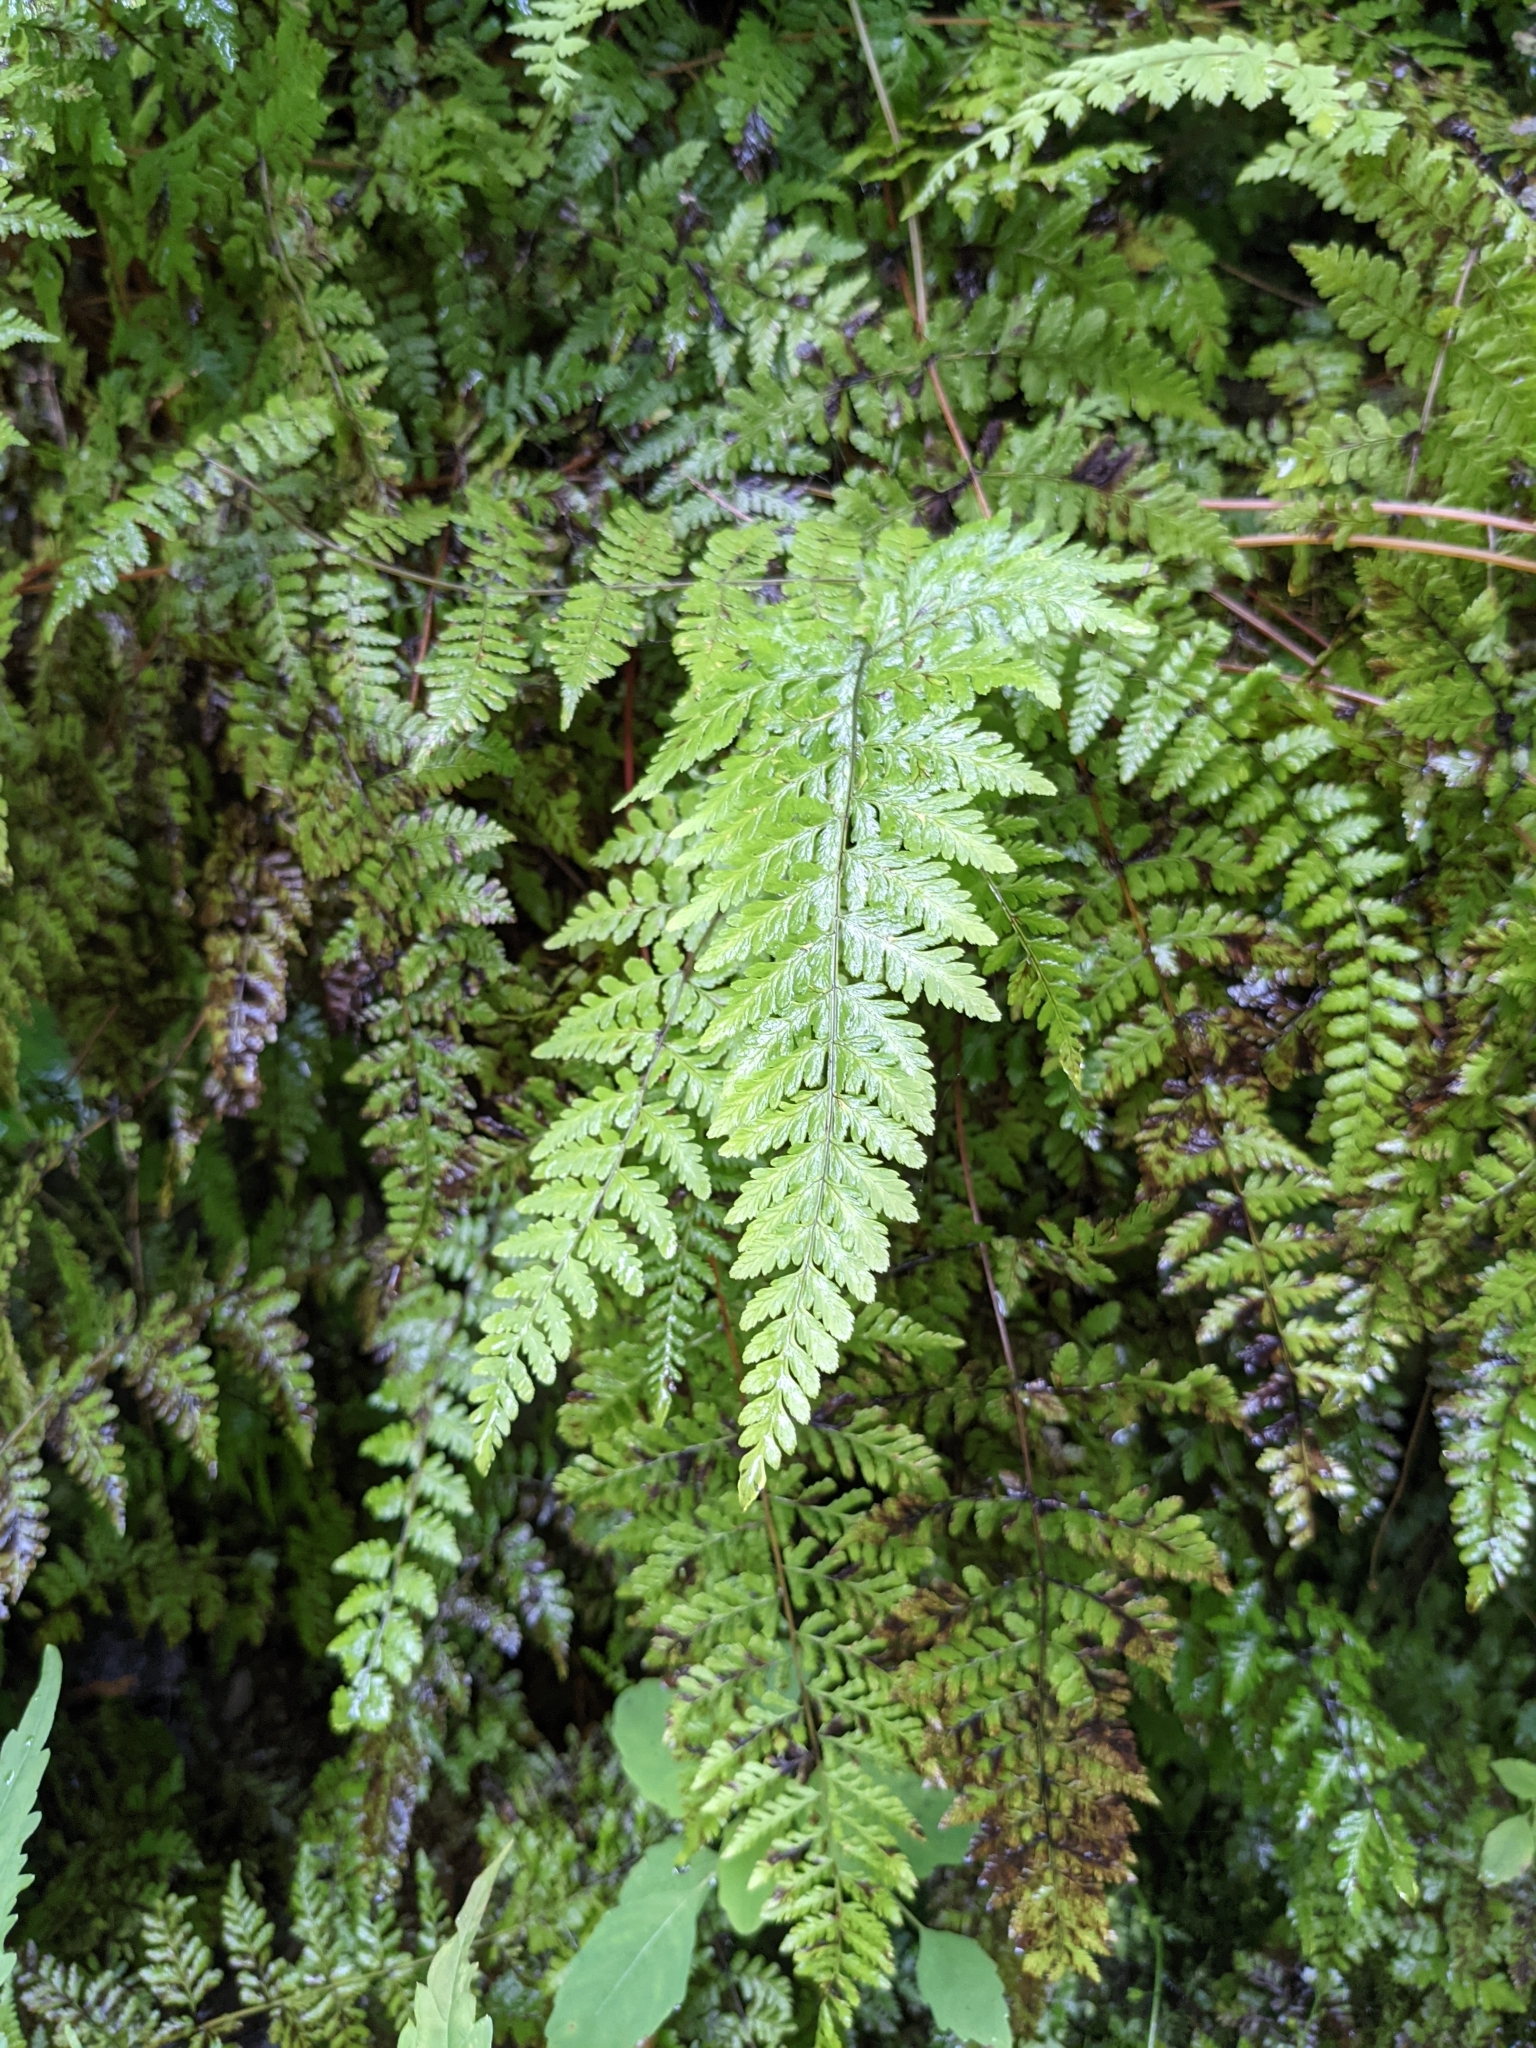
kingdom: Plantae
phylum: Tracheophyta
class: Polypodiopsida
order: Polypodiales
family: Cystopteridaceae
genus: Cystopteris
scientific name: Cystopteris bulbifera
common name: Bulblet bladder fern
